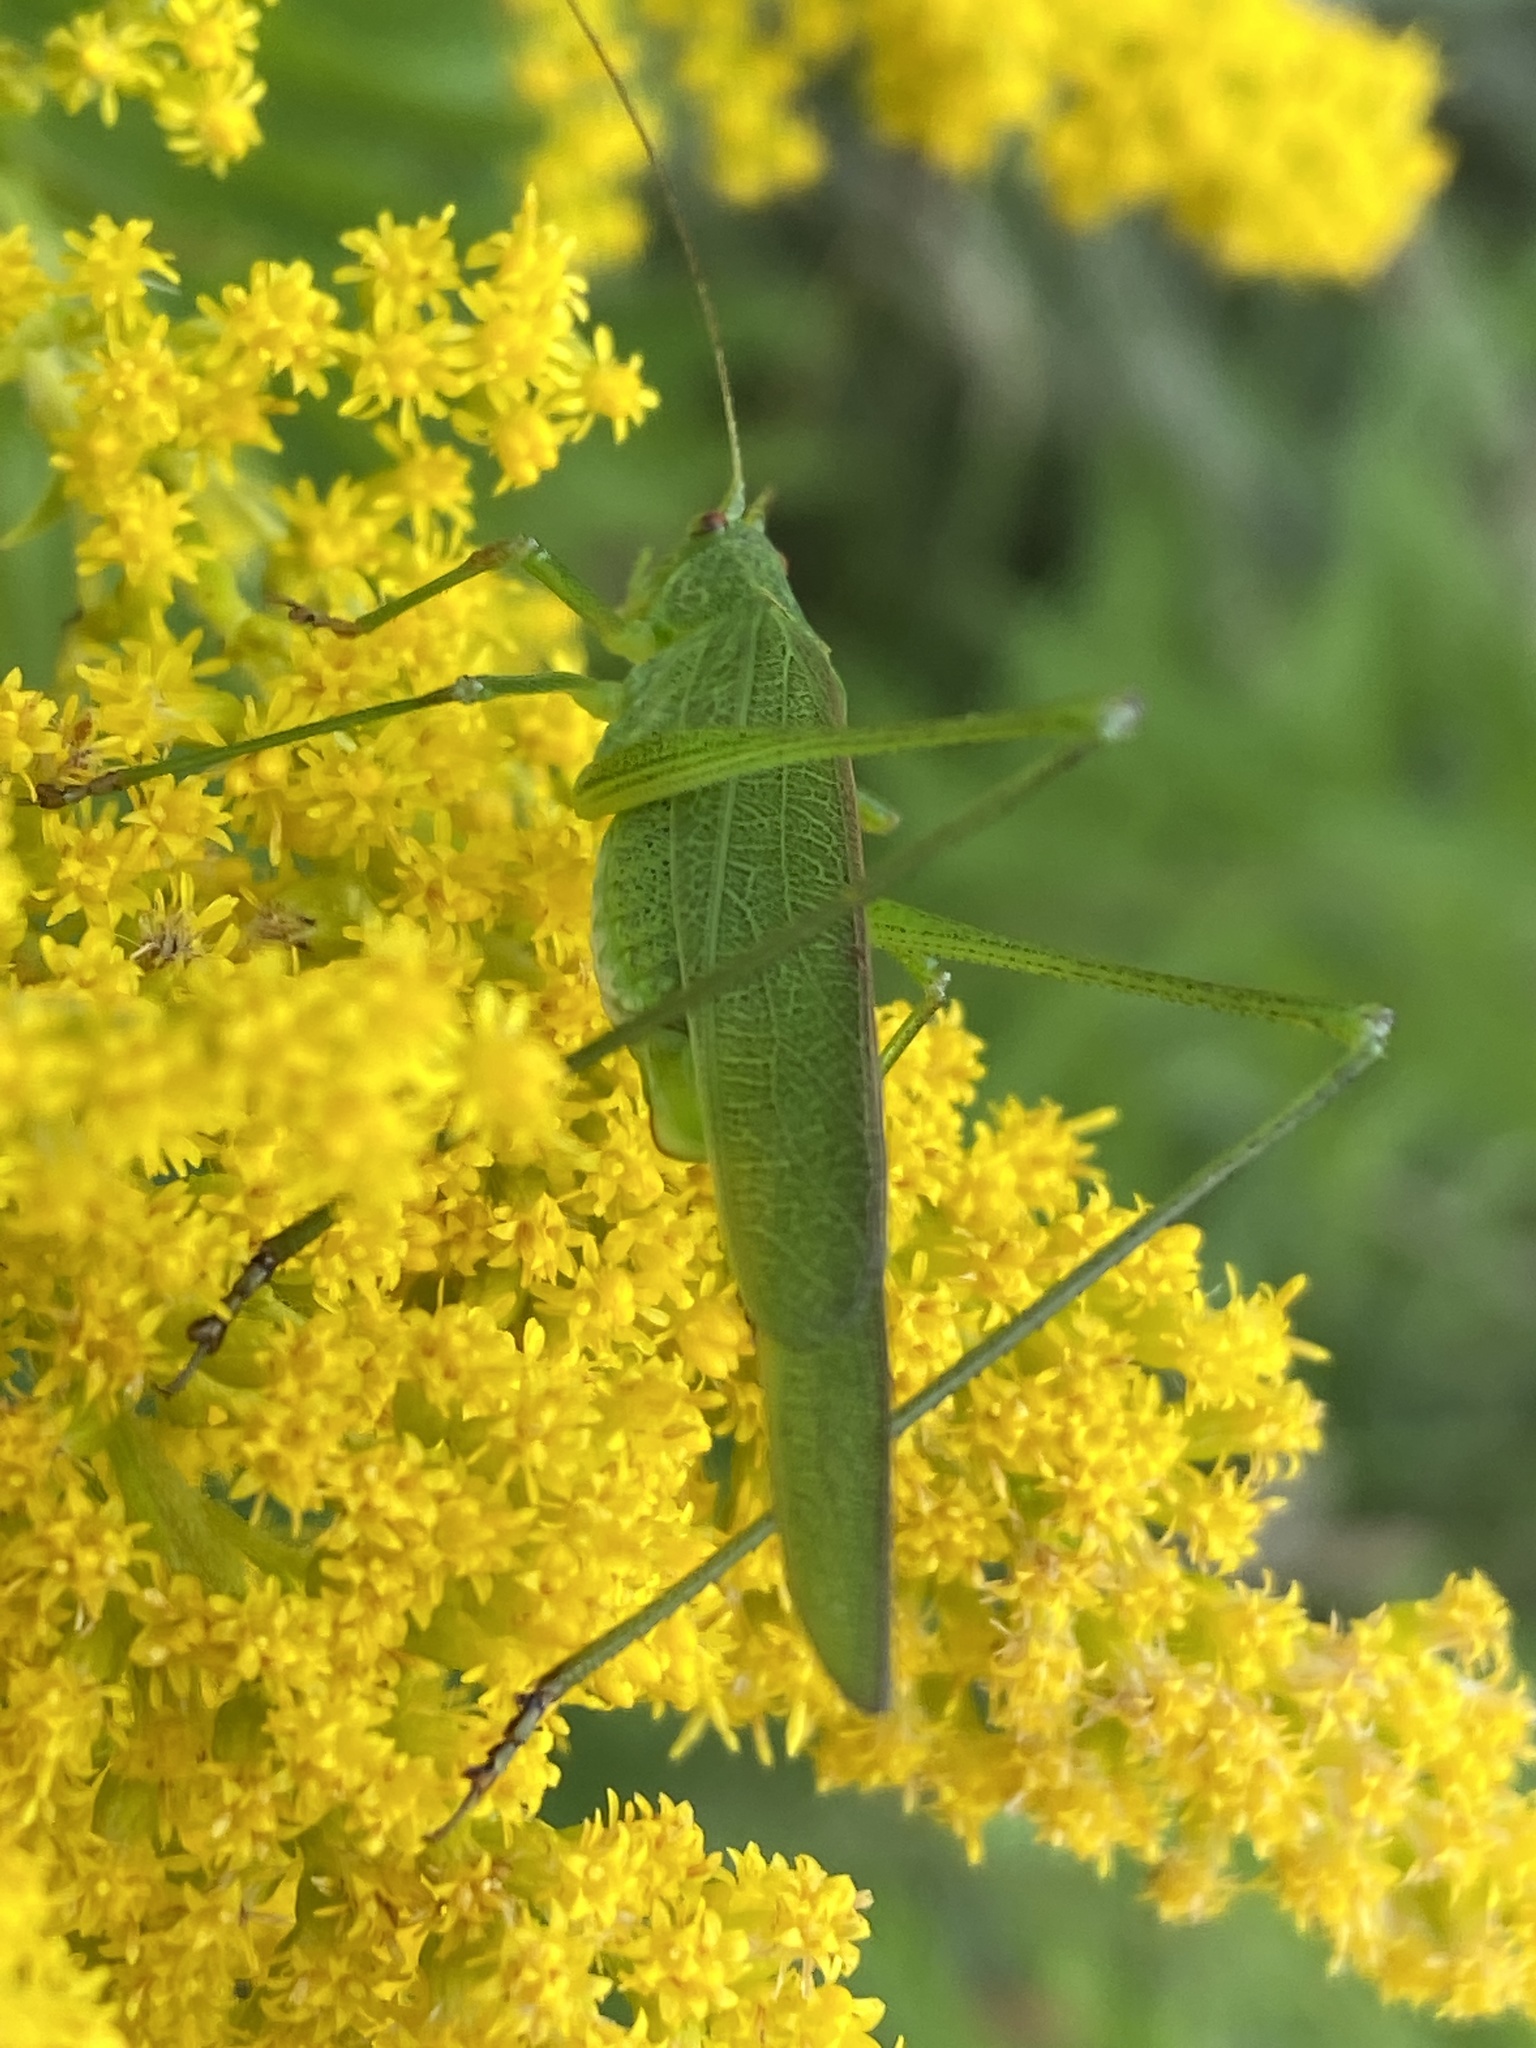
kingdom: Animalia
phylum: Arthropoda
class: Insecta
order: Orthoptera
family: Tettigoniidae
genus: Phaneroptera
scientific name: Phaneroptera falcata
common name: Sickle-bearing bush-cricket
